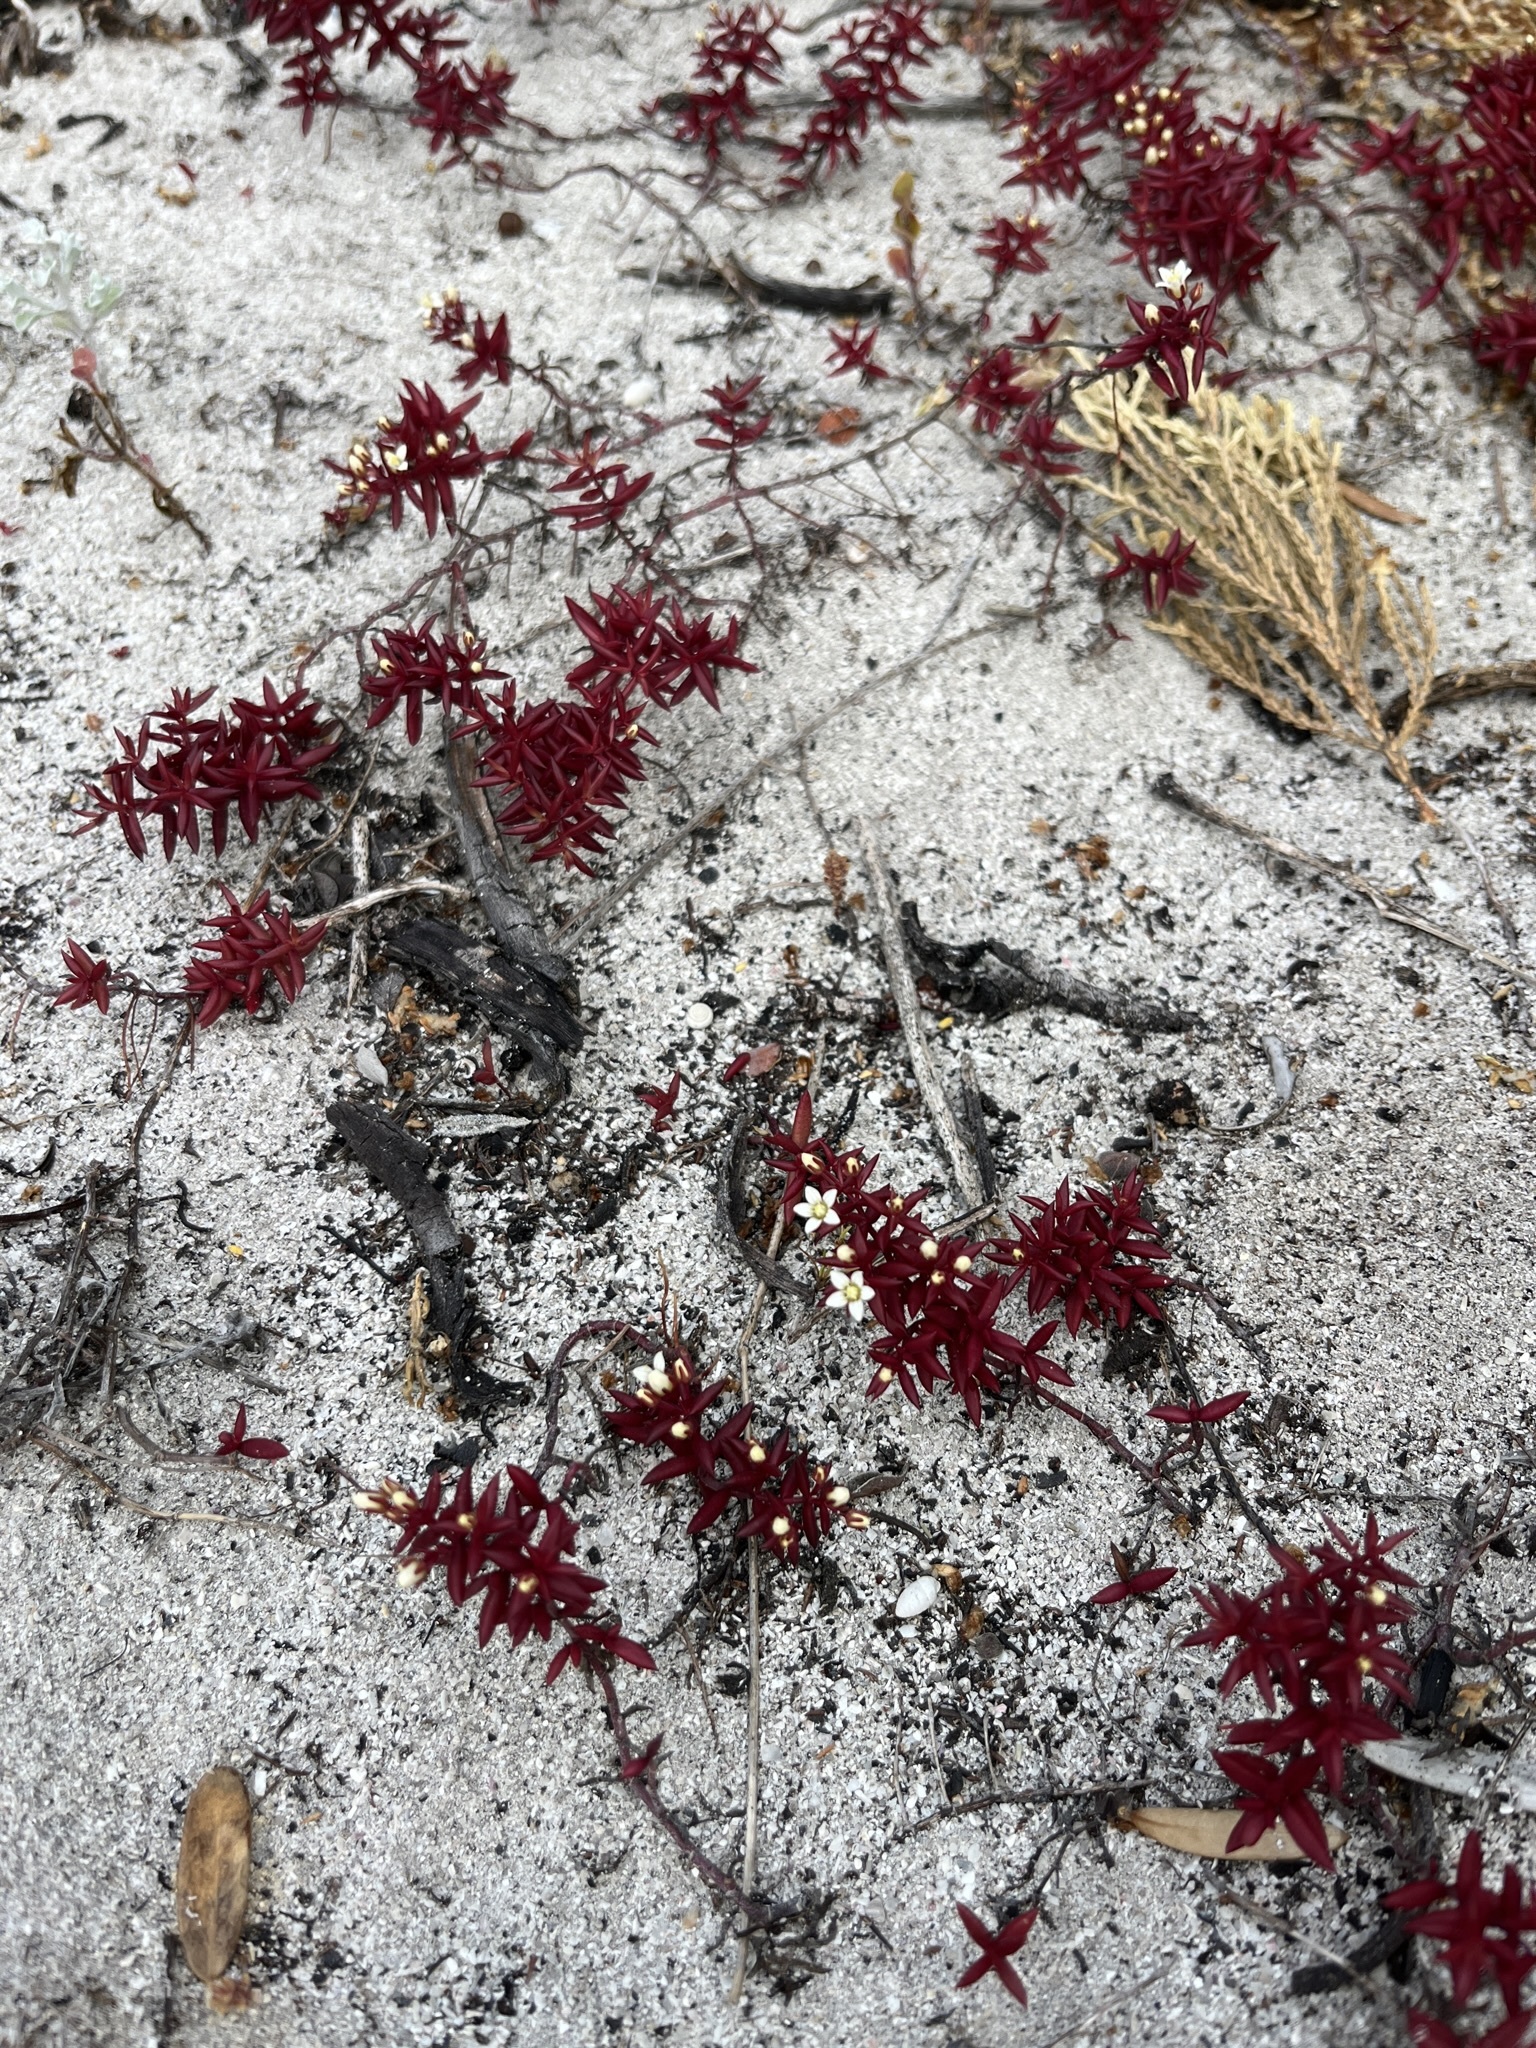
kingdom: Plantae
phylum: Tracheophyta
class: Magnoliopsida
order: Saxifragales
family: Crassulaceae
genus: Crassula
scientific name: Crassula expansa
